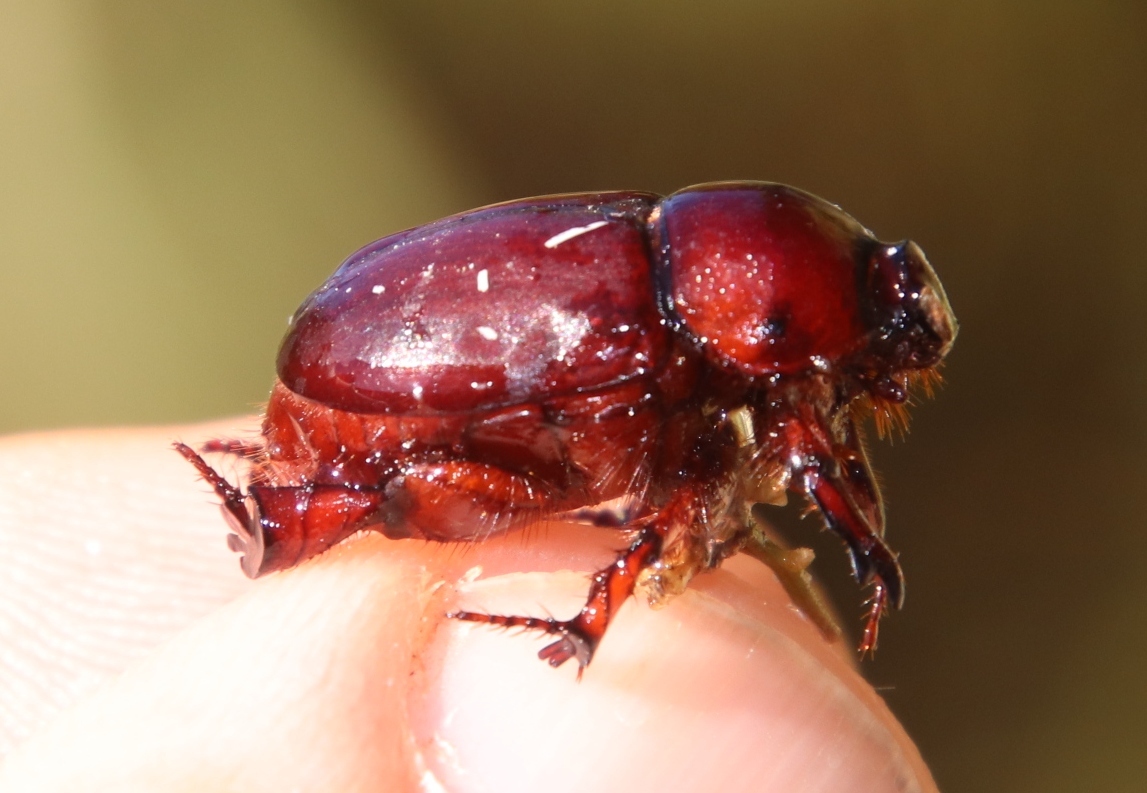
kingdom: Animalia
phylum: Arthropoda
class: Insecta
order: Coleoptera
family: Scarabaeidae
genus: Temnorhynchus
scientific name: Temnorhynchus retusus
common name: Plate-faced beetle
